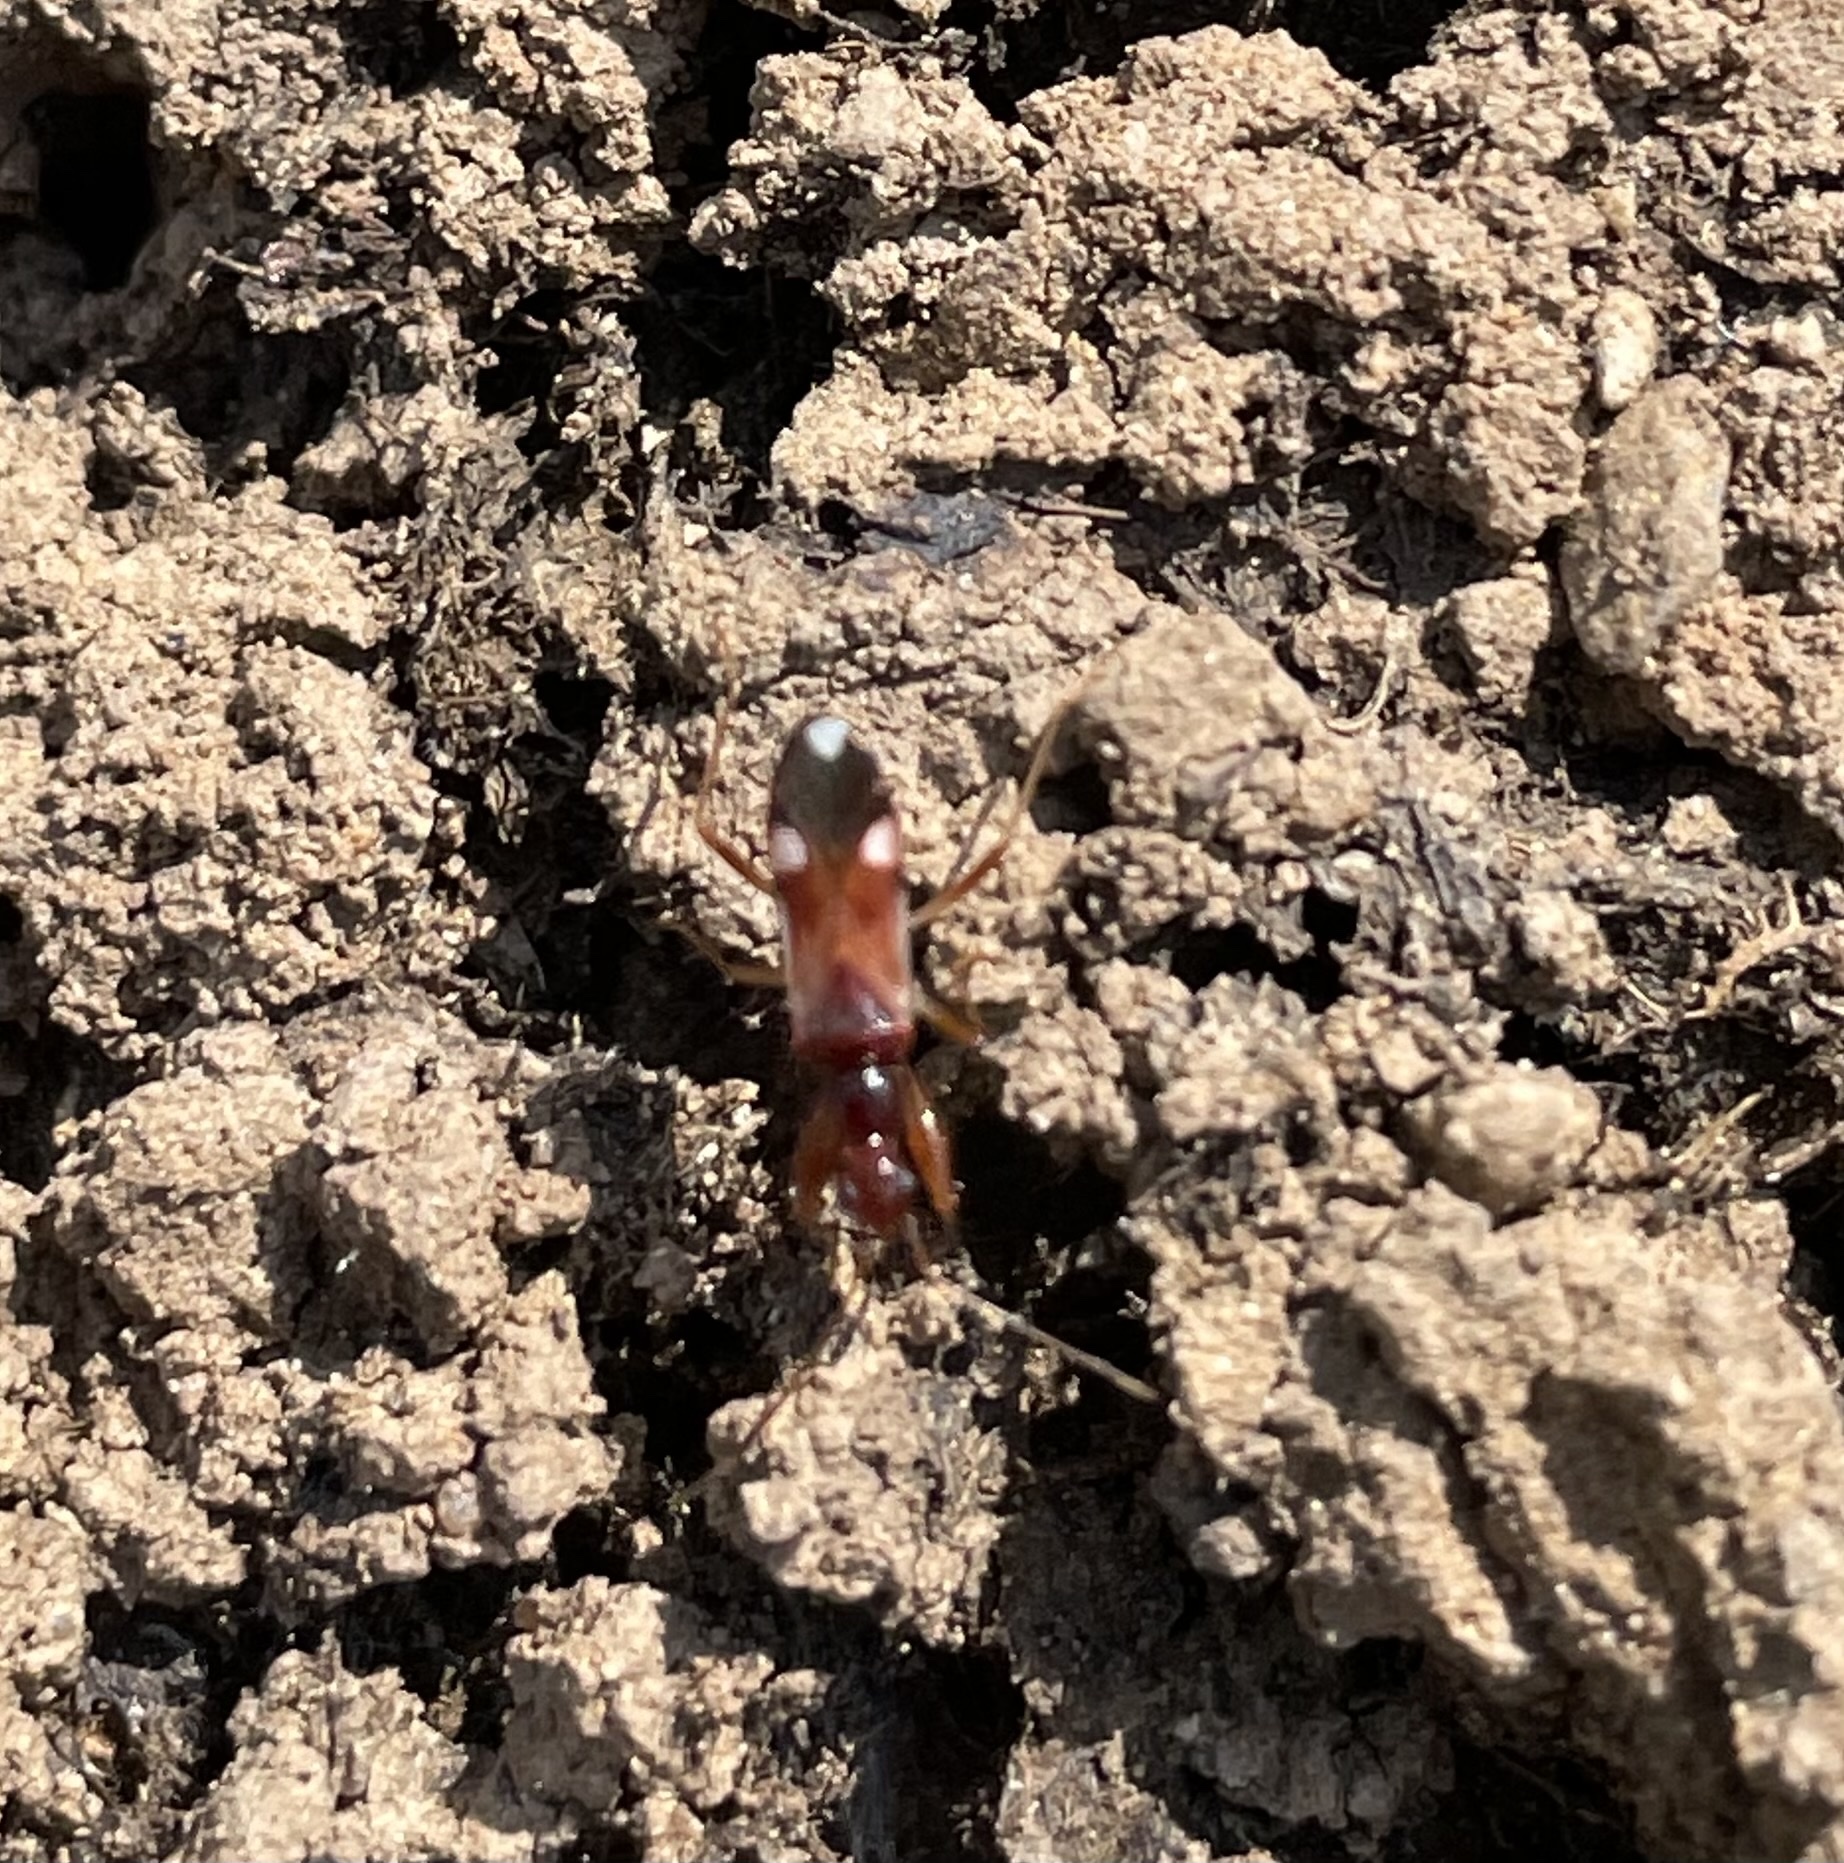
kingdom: Animalia
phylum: Arthropoda
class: Insecta
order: Hemiptera
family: Rhyparochromidae
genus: Pseudopamera
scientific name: Pseudopamera aurivilliana
